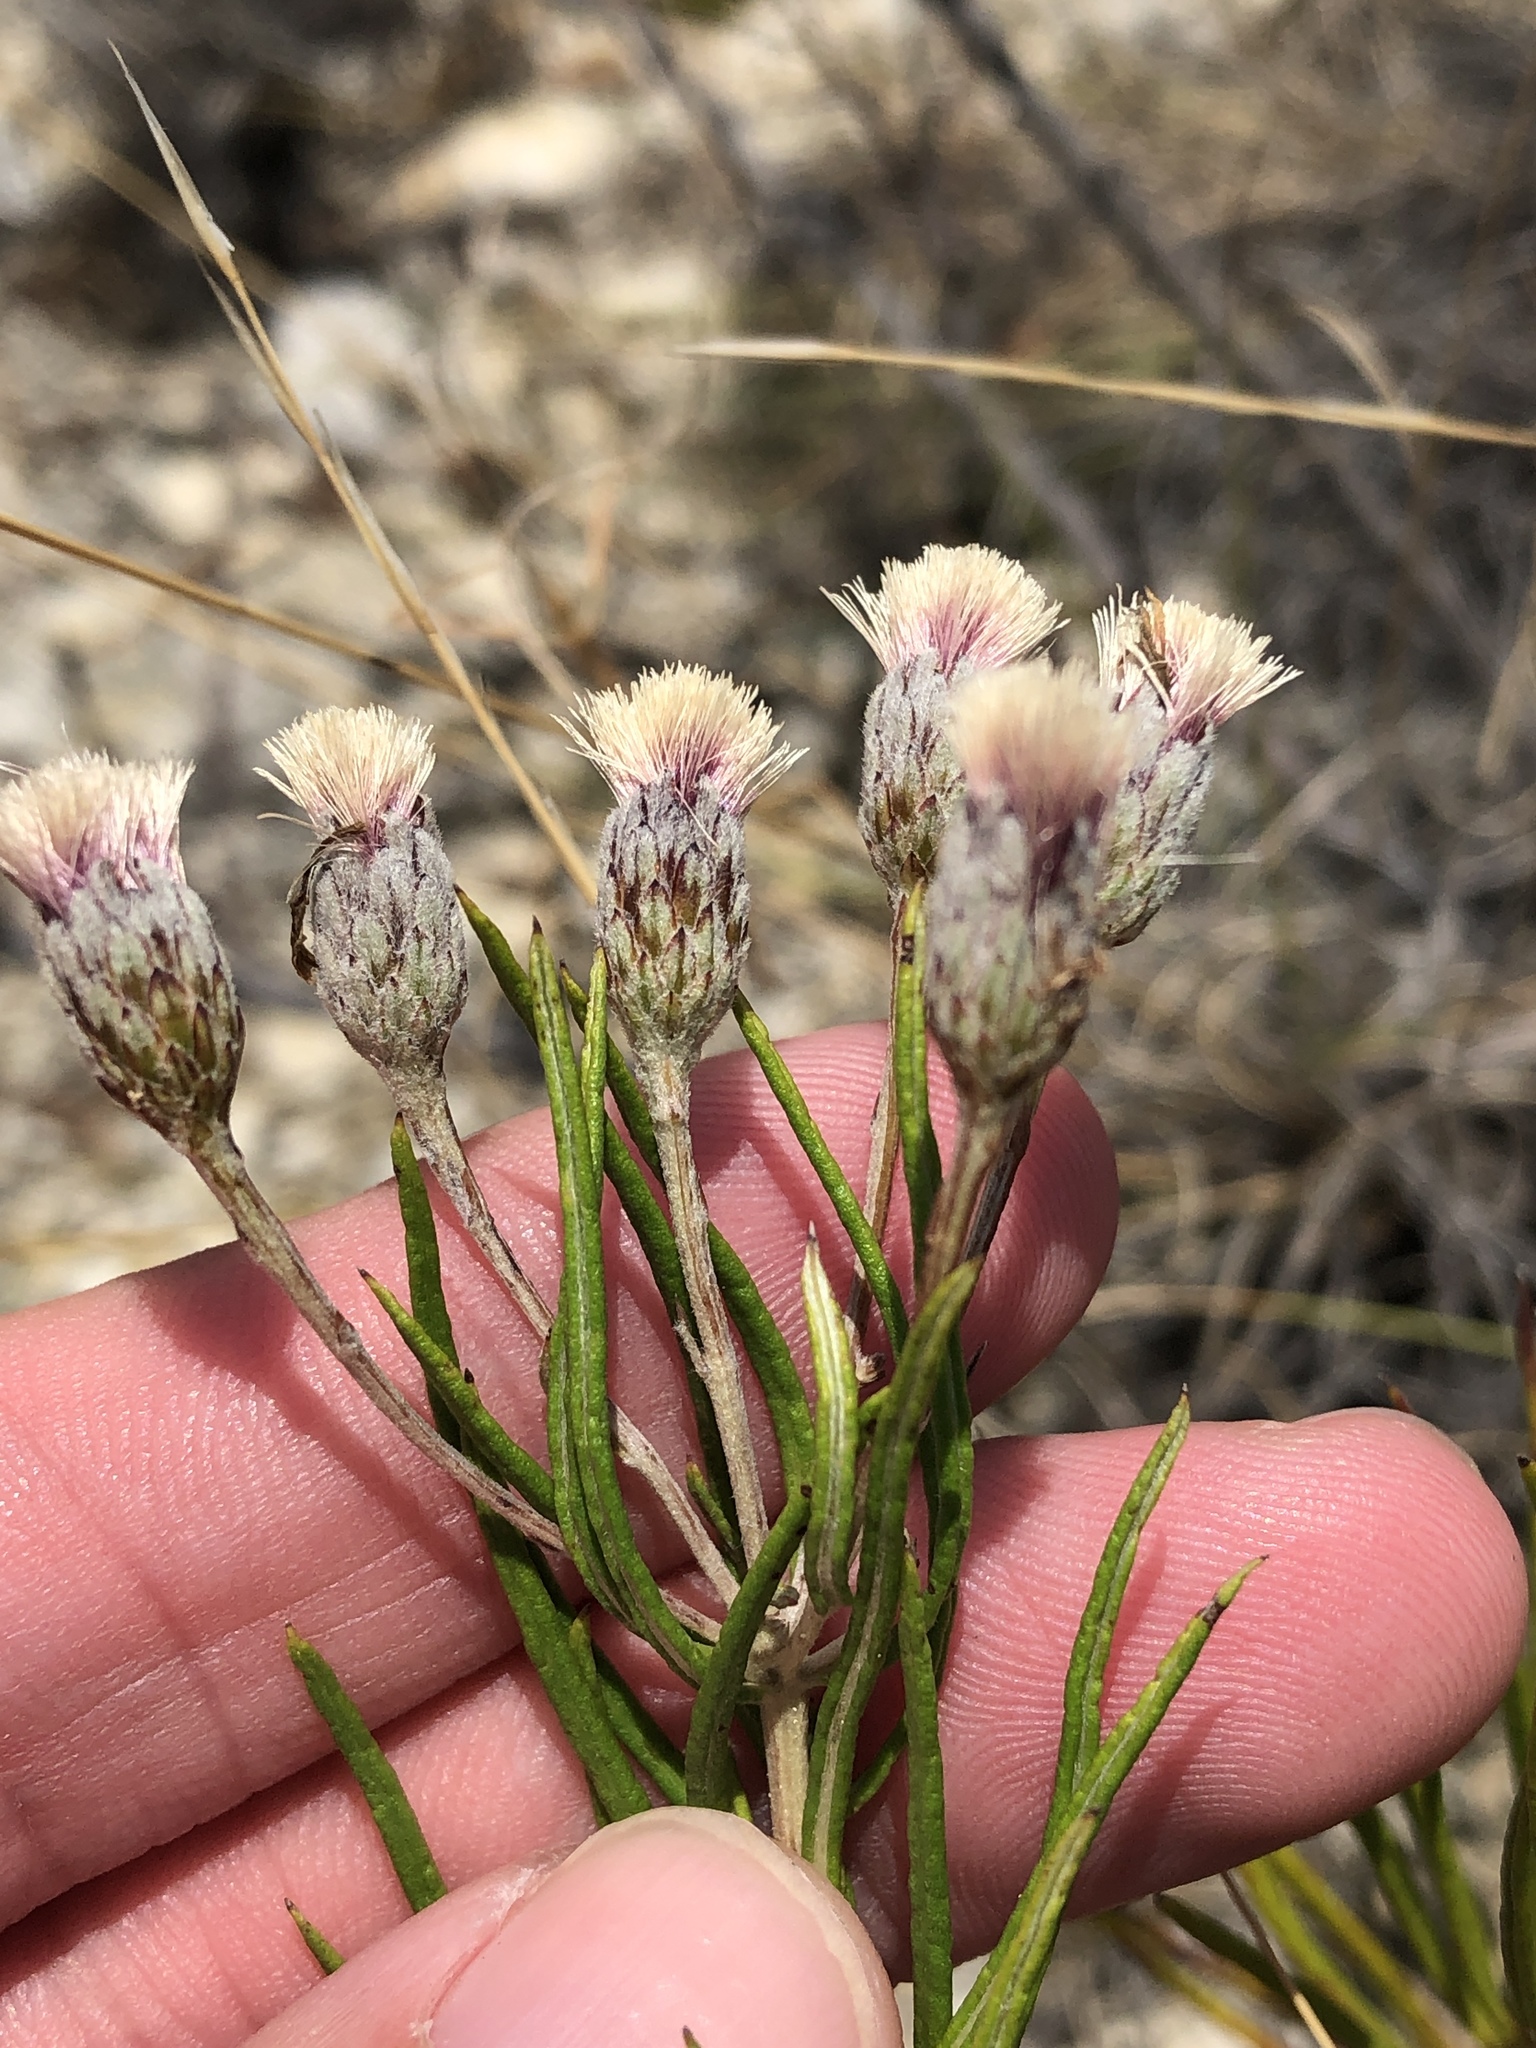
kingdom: Plantae
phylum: Tracheophyta
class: Magnoliopsida
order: Asterales
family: Asteraceae
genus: Vernonia
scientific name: Vernonia lindheimeri
